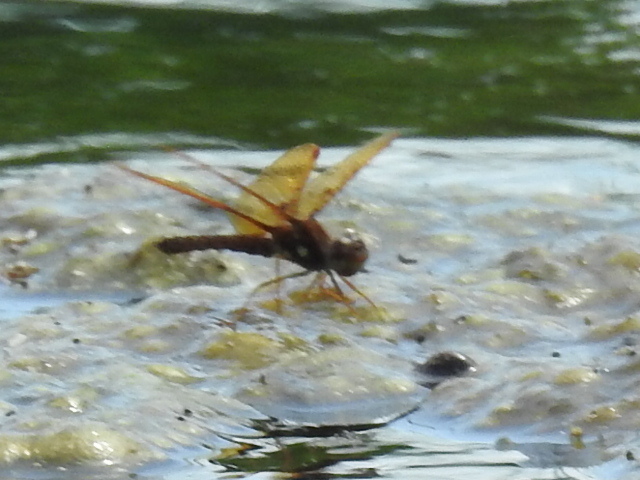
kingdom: Animalia
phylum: Arthropoda
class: Insecta
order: Odonata
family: Libellulidae
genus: Perithemis
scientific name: Perithemis tenera
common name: Eastern amberwing
